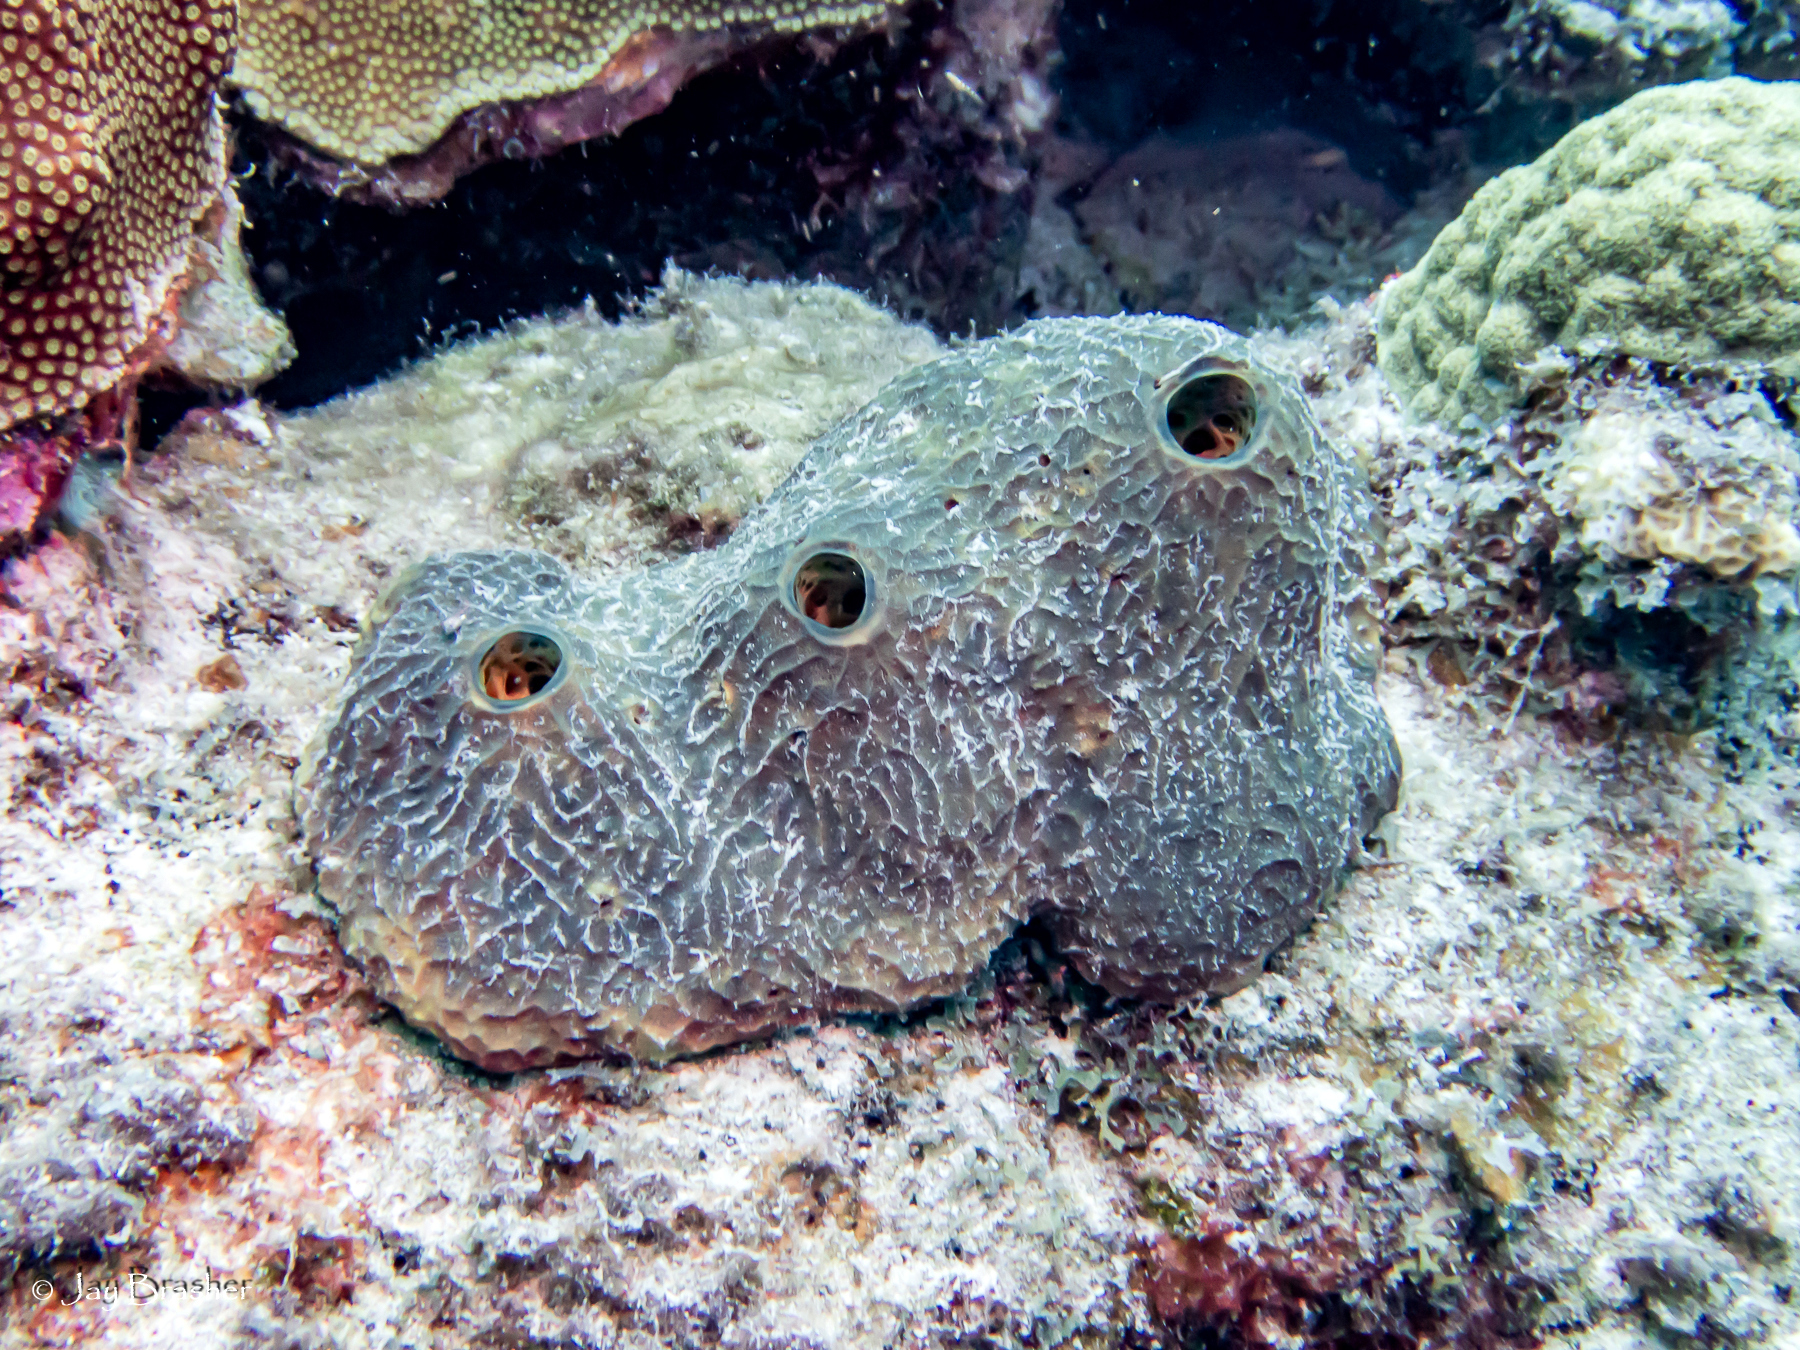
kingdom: Animalia
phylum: Porifera
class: Demospongiae
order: Verongiida
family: Aplysinidae
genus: Verongula
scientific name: Verongula reiswigi
